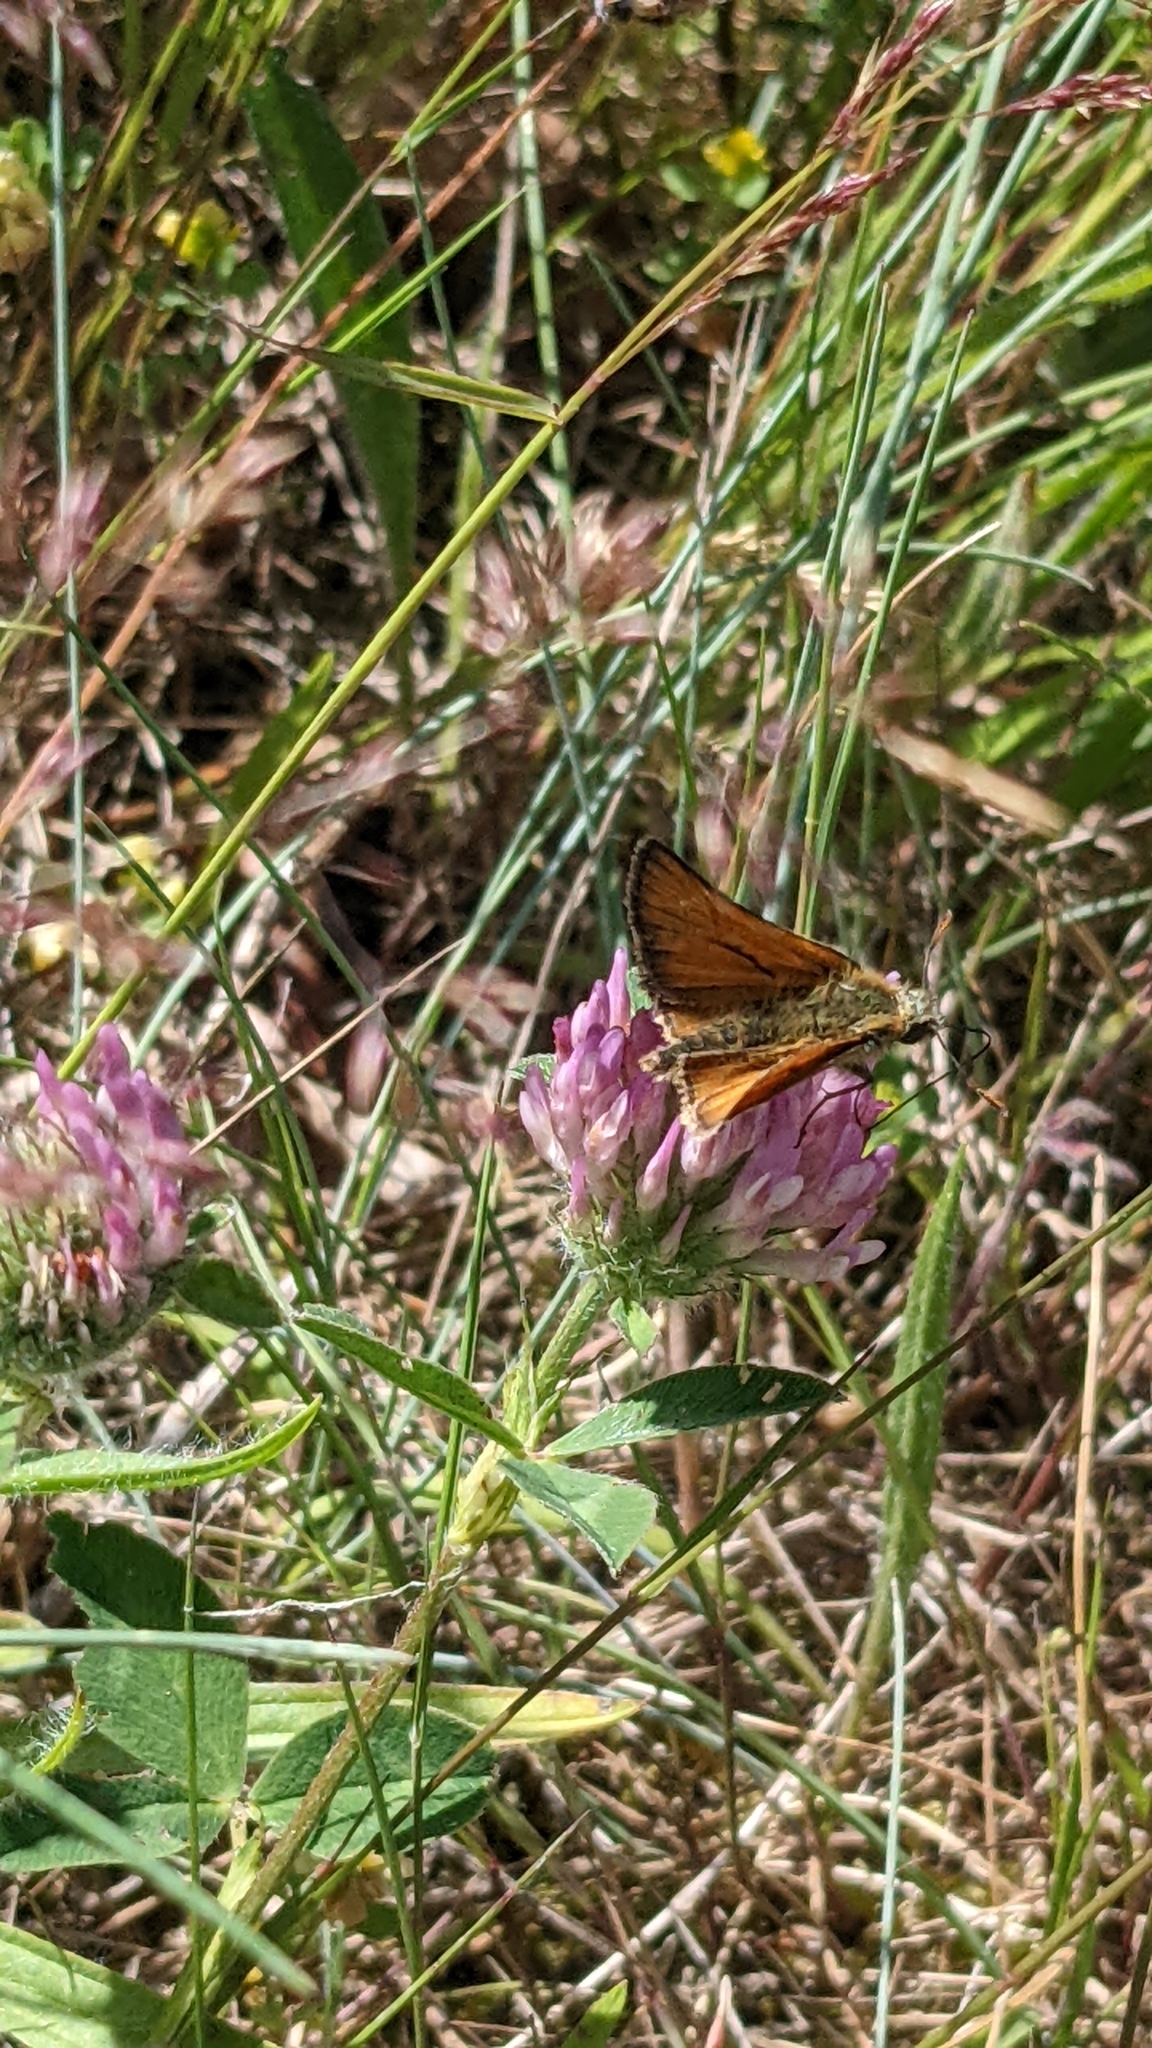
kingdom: Animalia
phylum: Arthropoda
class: Insecta
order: Lepidoptera
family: Hesperiidae
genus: Thymelicus
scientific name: Thymelicus sylvestris
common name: Small skipper
